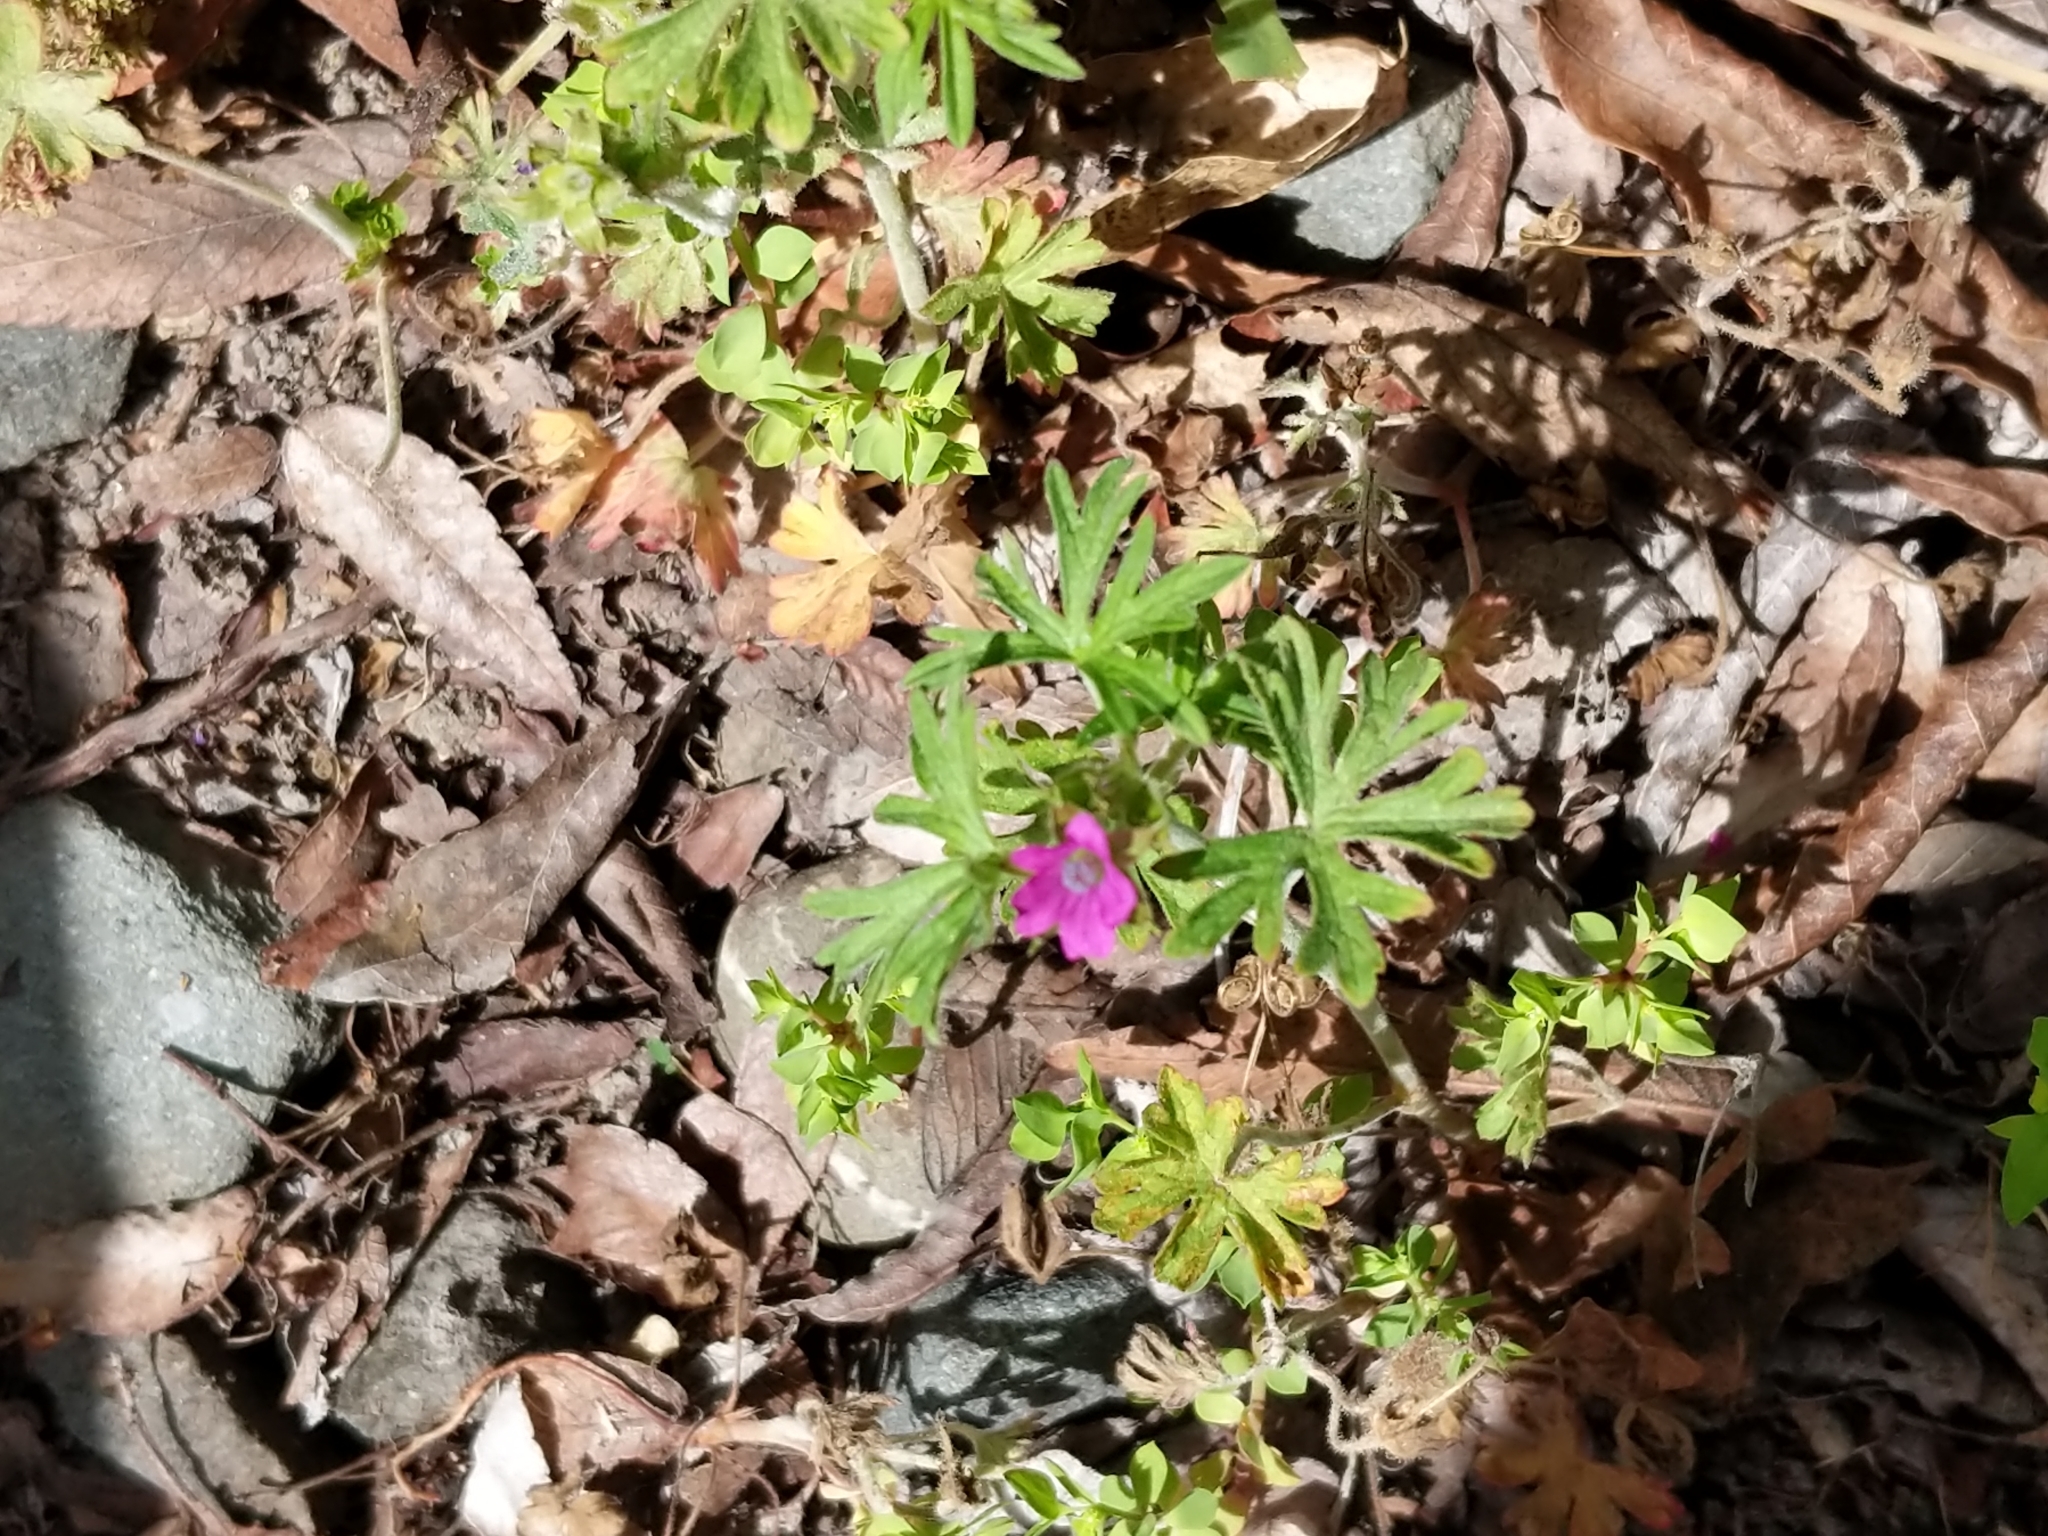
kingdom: Plantae
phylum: Tracheophyta
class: Magnoliopsida
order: Geraniales
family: Geraniaceae
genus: Geranium
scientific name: Geranium dissectum
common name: Cut-leaved crane's-bill
